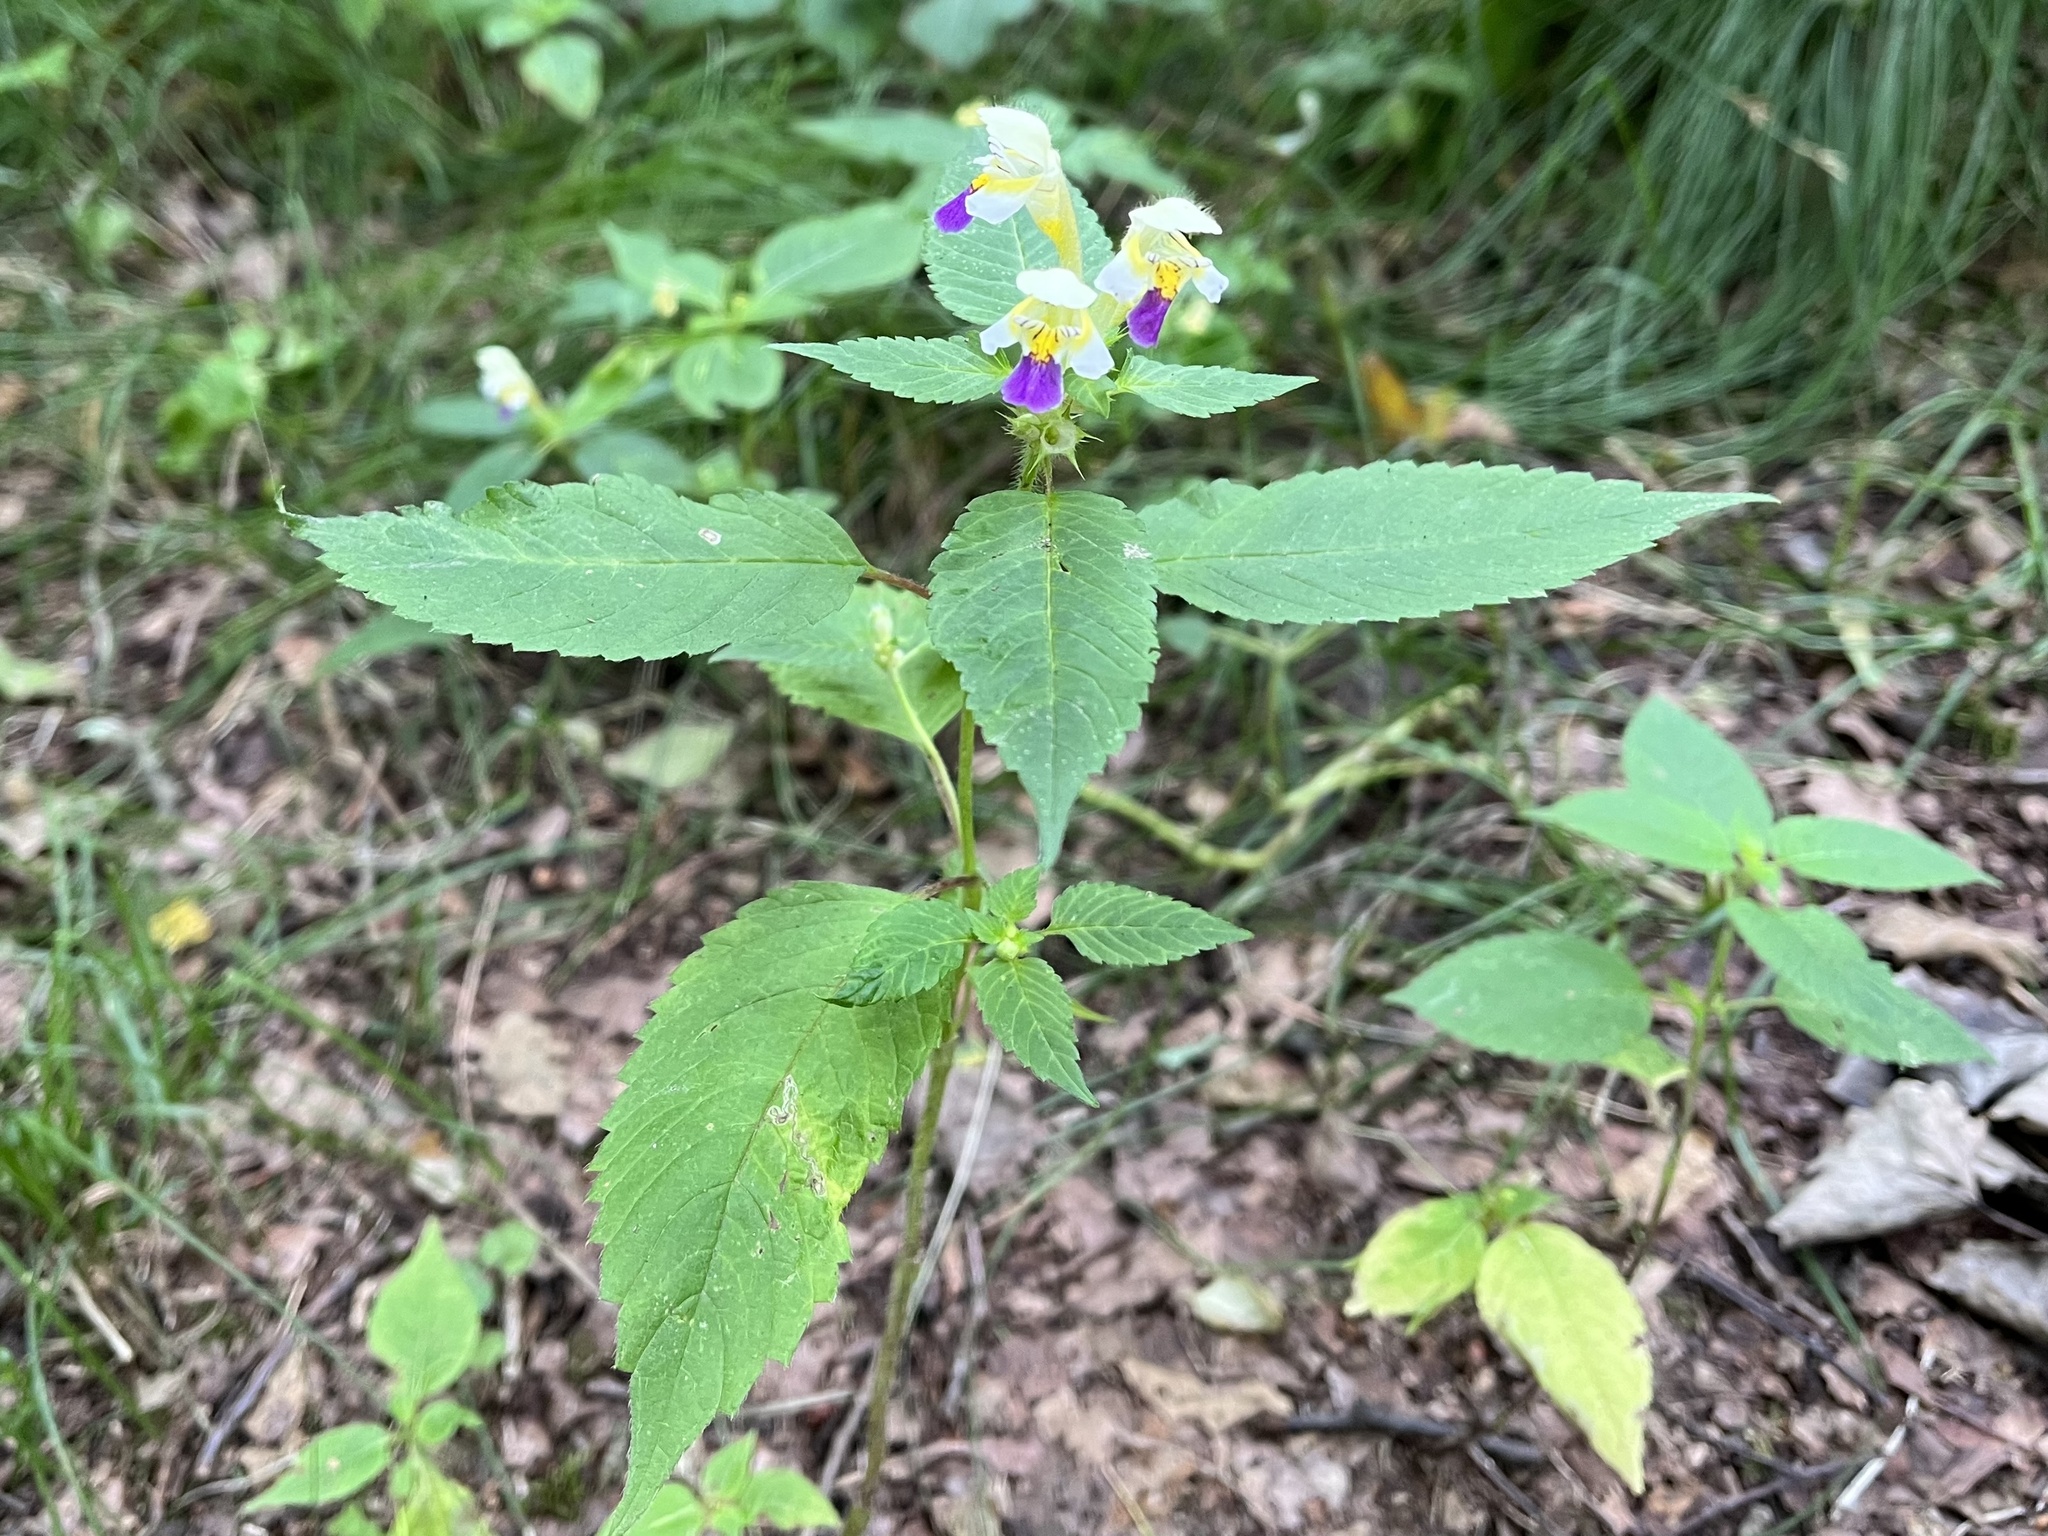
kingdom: Plantae
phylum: Tracheophyta
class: Magnoliopsida
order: Lamiales
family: Lamiaceae
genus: Galeopsis
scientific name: Galeopsis speciosa
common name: Large-flowered hemp-nettle
